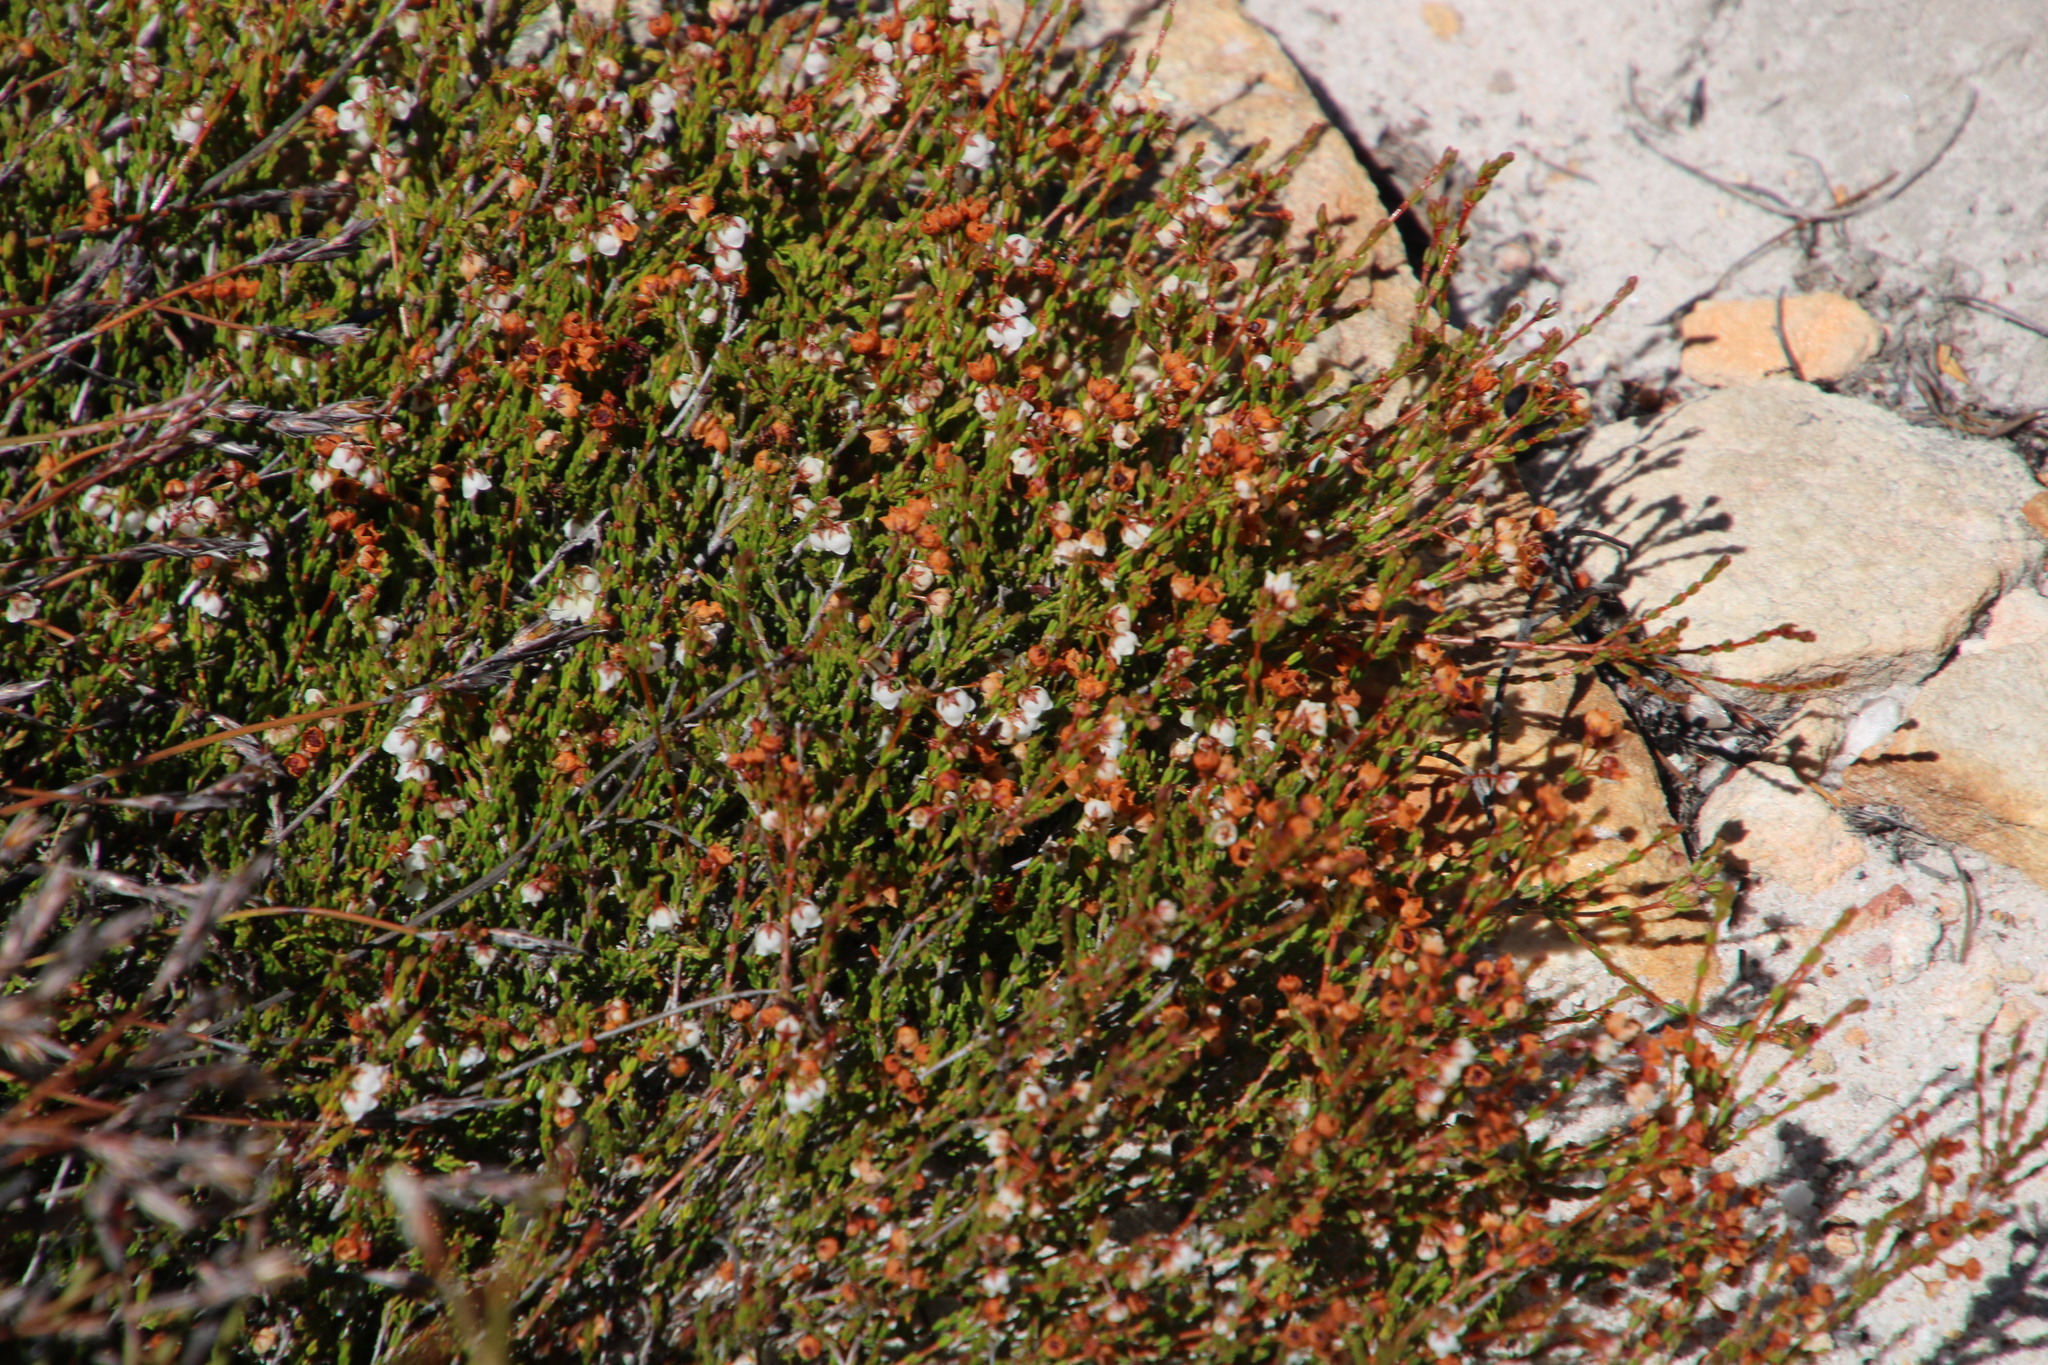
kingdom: Plantae
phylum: Tracheophyta
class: Magnoliopsida
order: Ericales
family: Ericaceae
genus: Erica
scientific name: Erica leptopus
